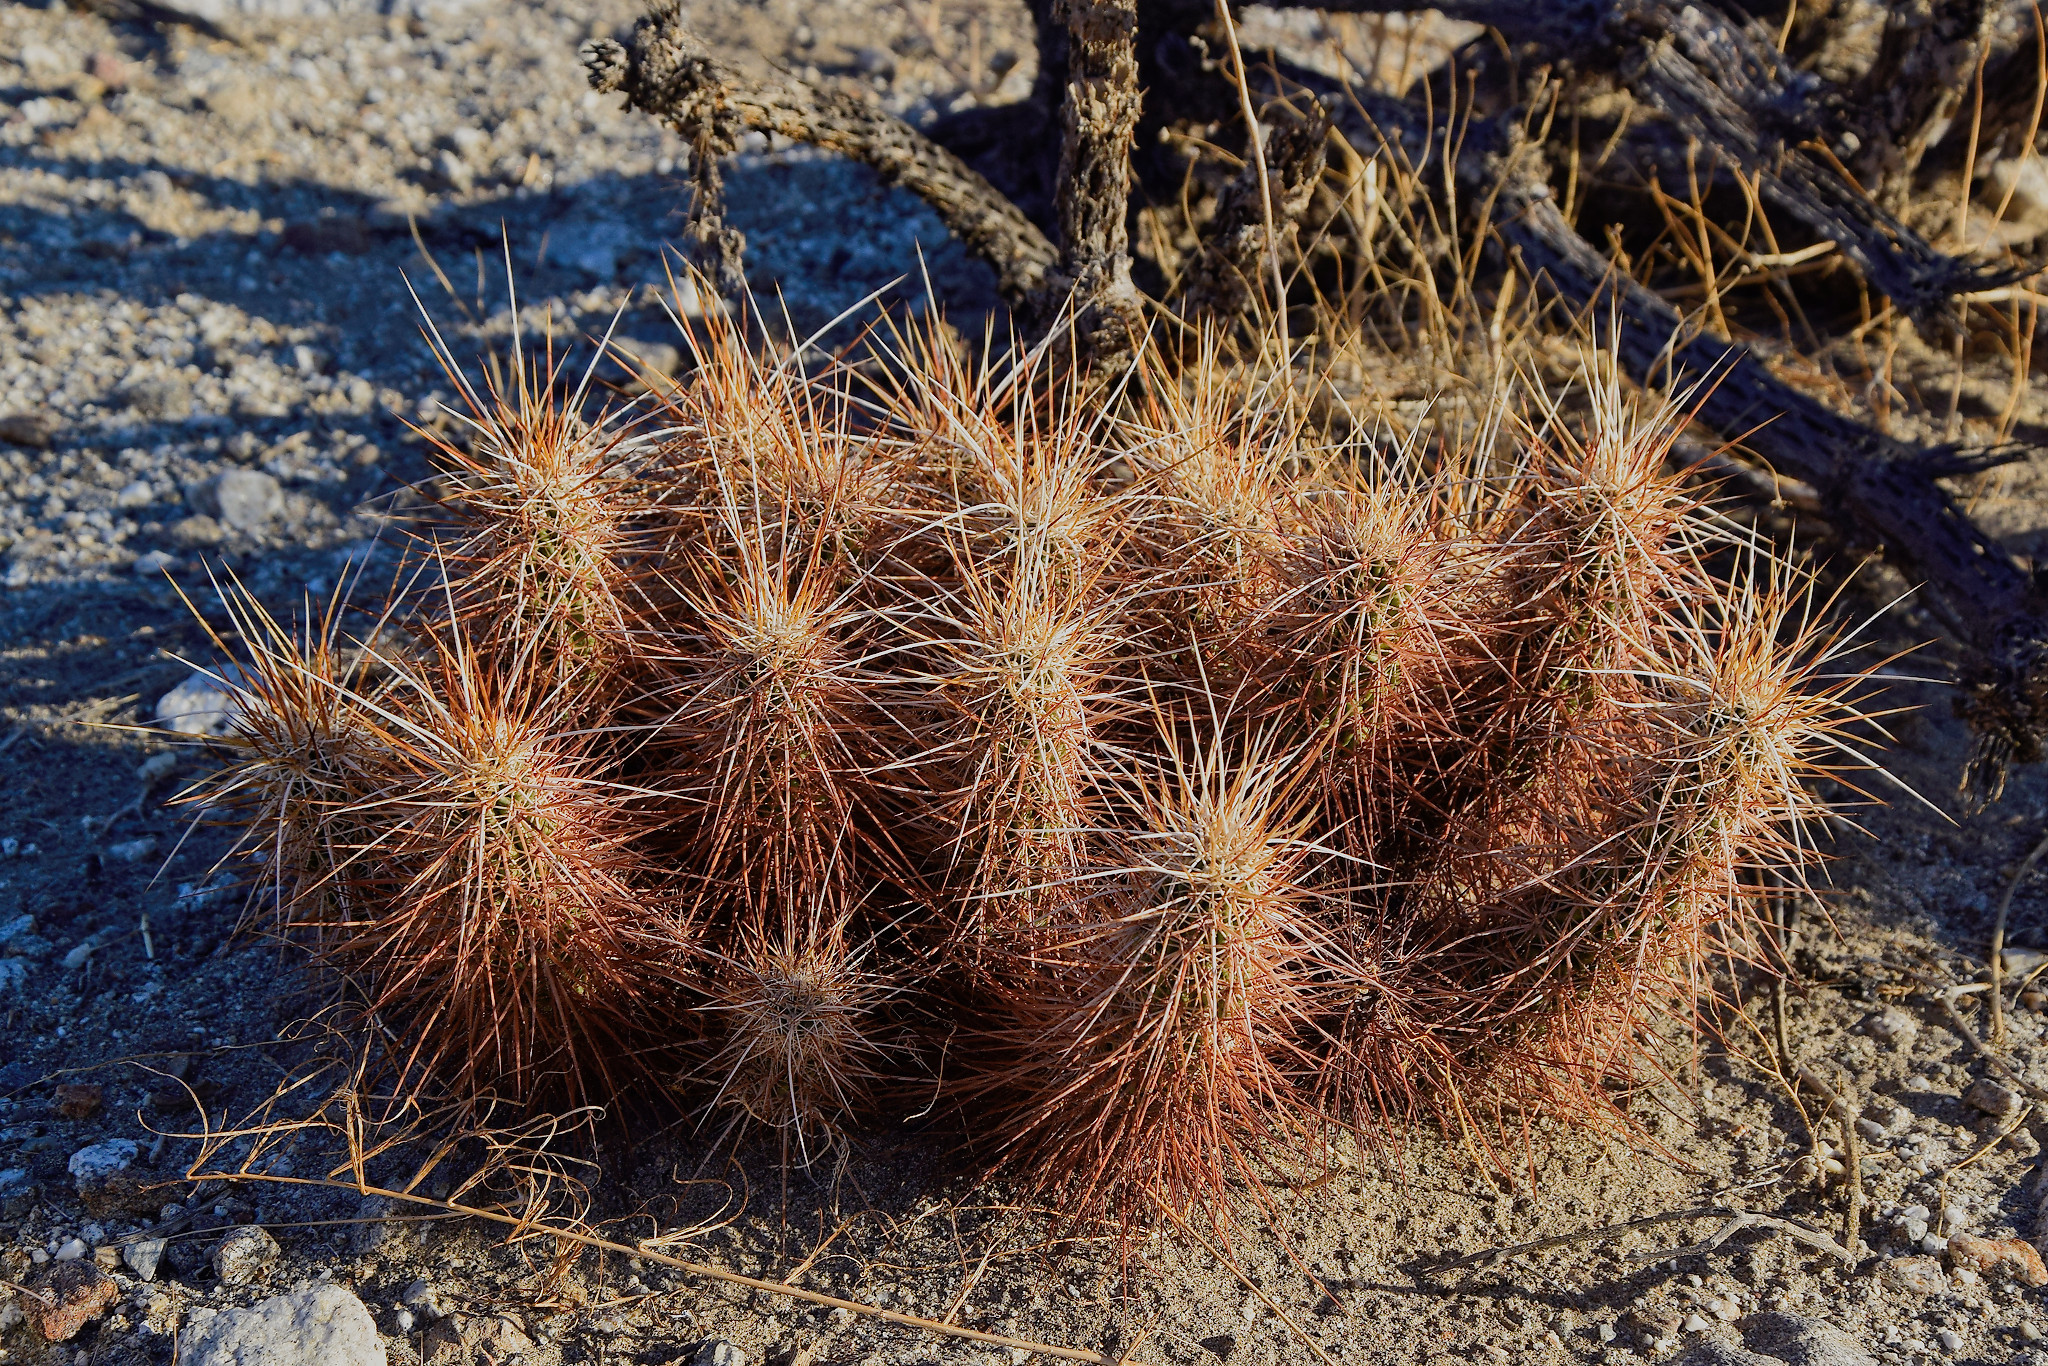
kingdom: Plantae
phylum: Tracheophyta
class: Magnoliopsida
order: Caryophyllales
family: Cactaceae
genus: Echinocereus
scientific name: Echinocereus engelmannii
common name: Engelmann's hedgehog cactus
